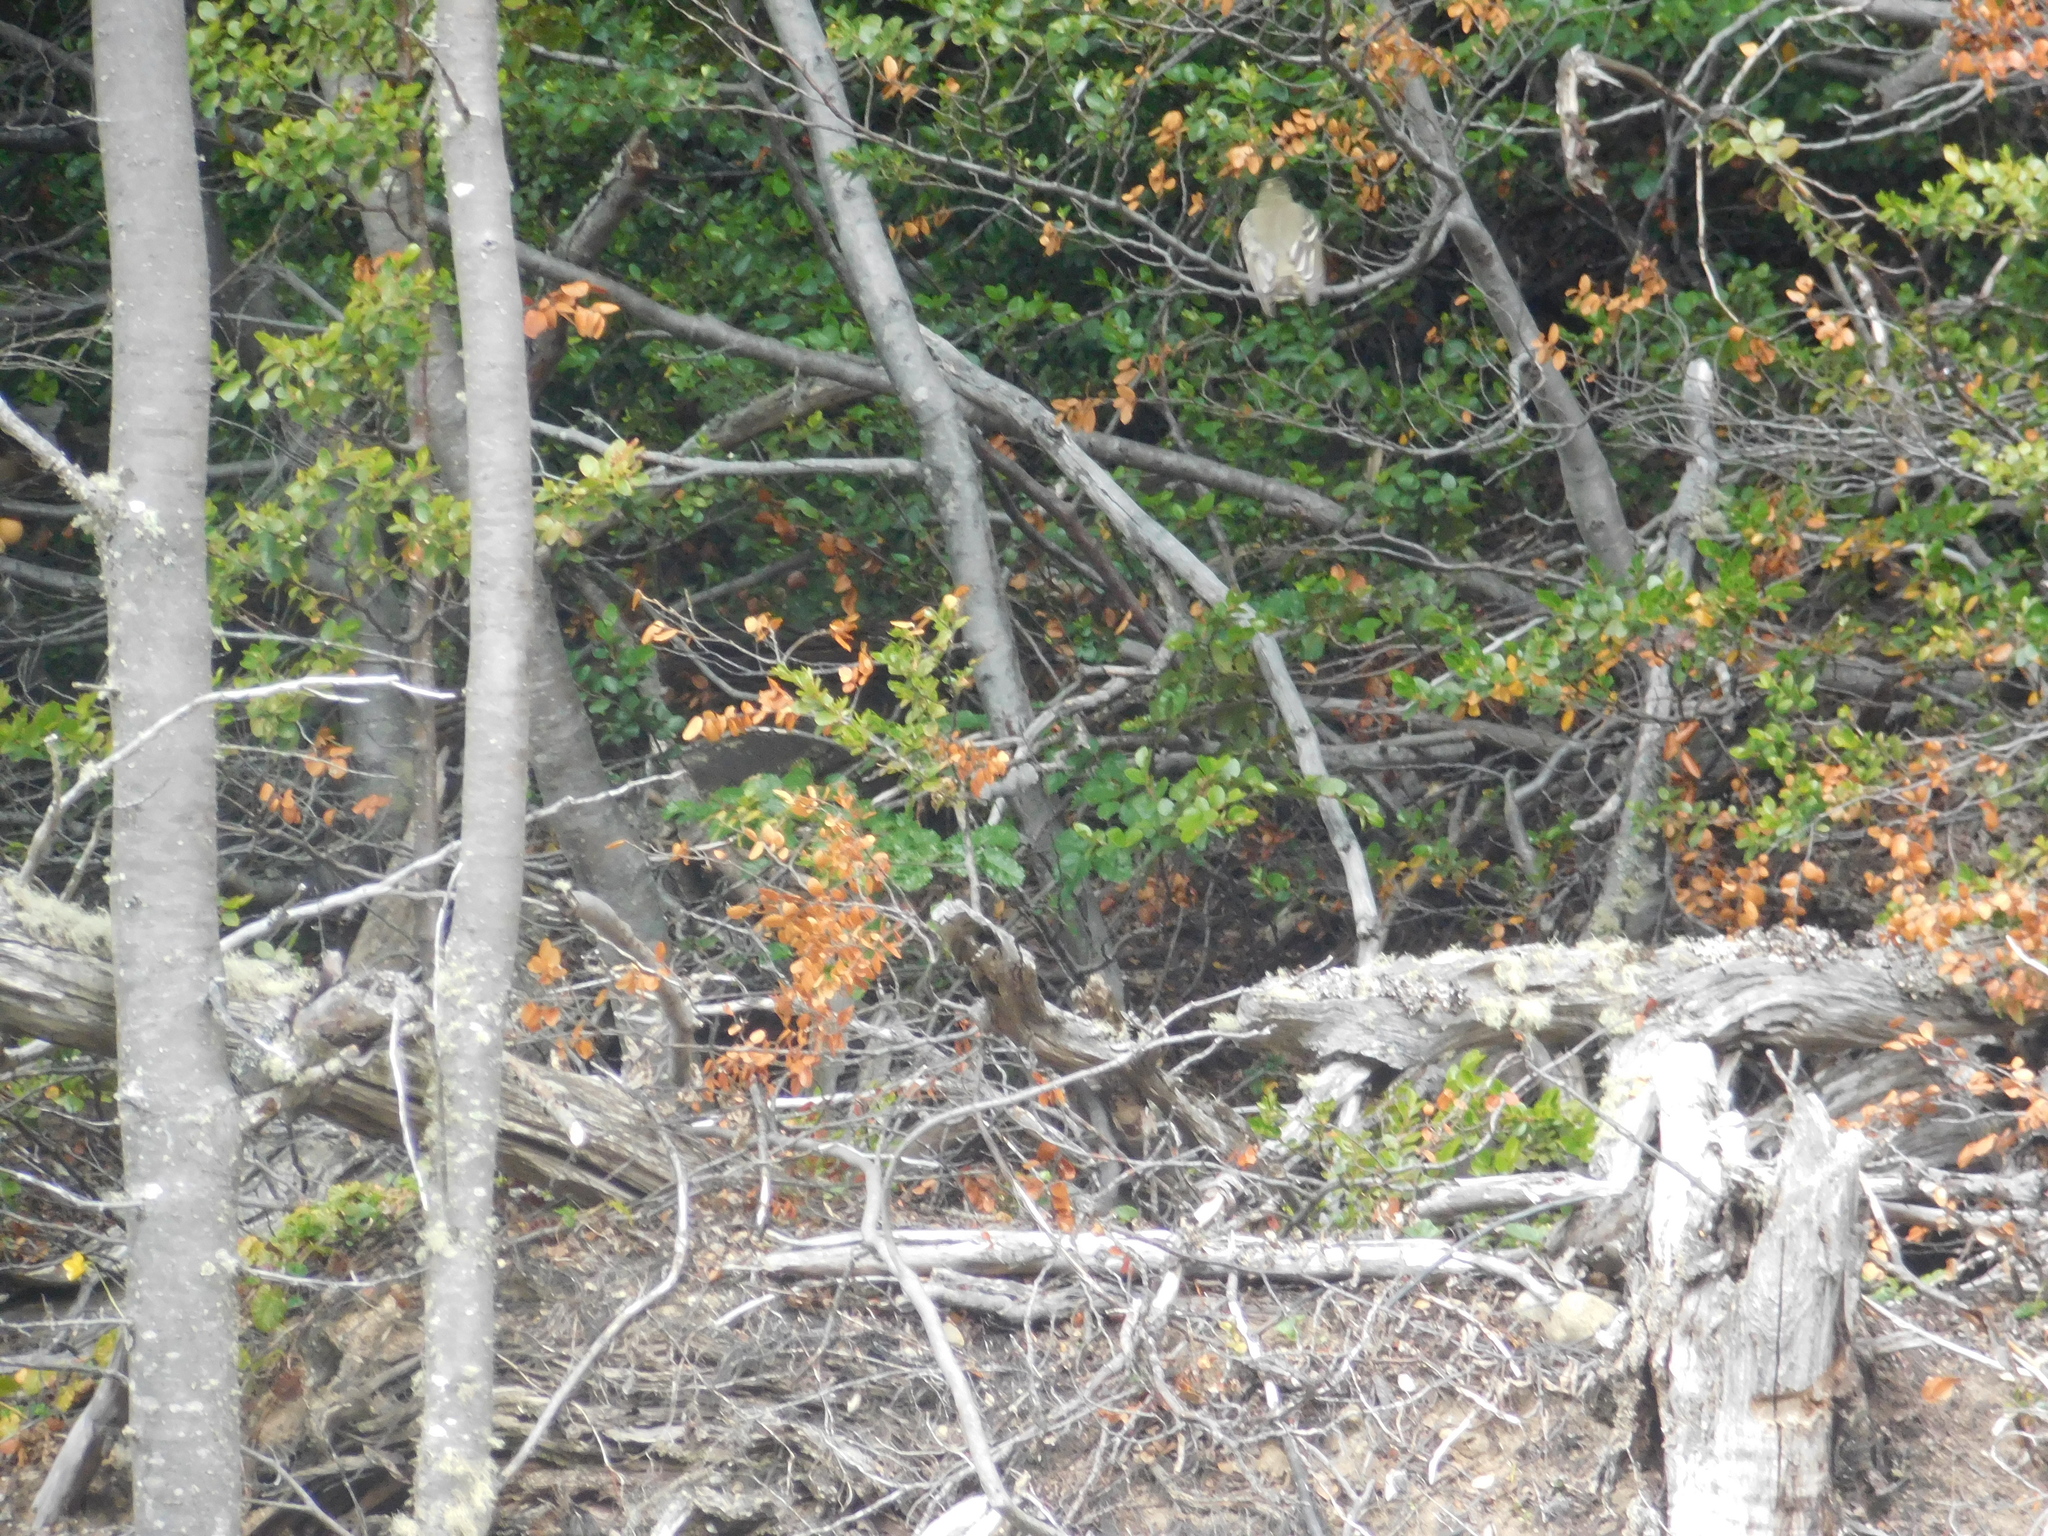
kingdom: Animalia
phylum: Chordata
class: Aves
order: Passeriformes
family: Tyrannidae
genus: Elaenia
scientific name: Elaenia albiceps
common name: White-crested elaenia
